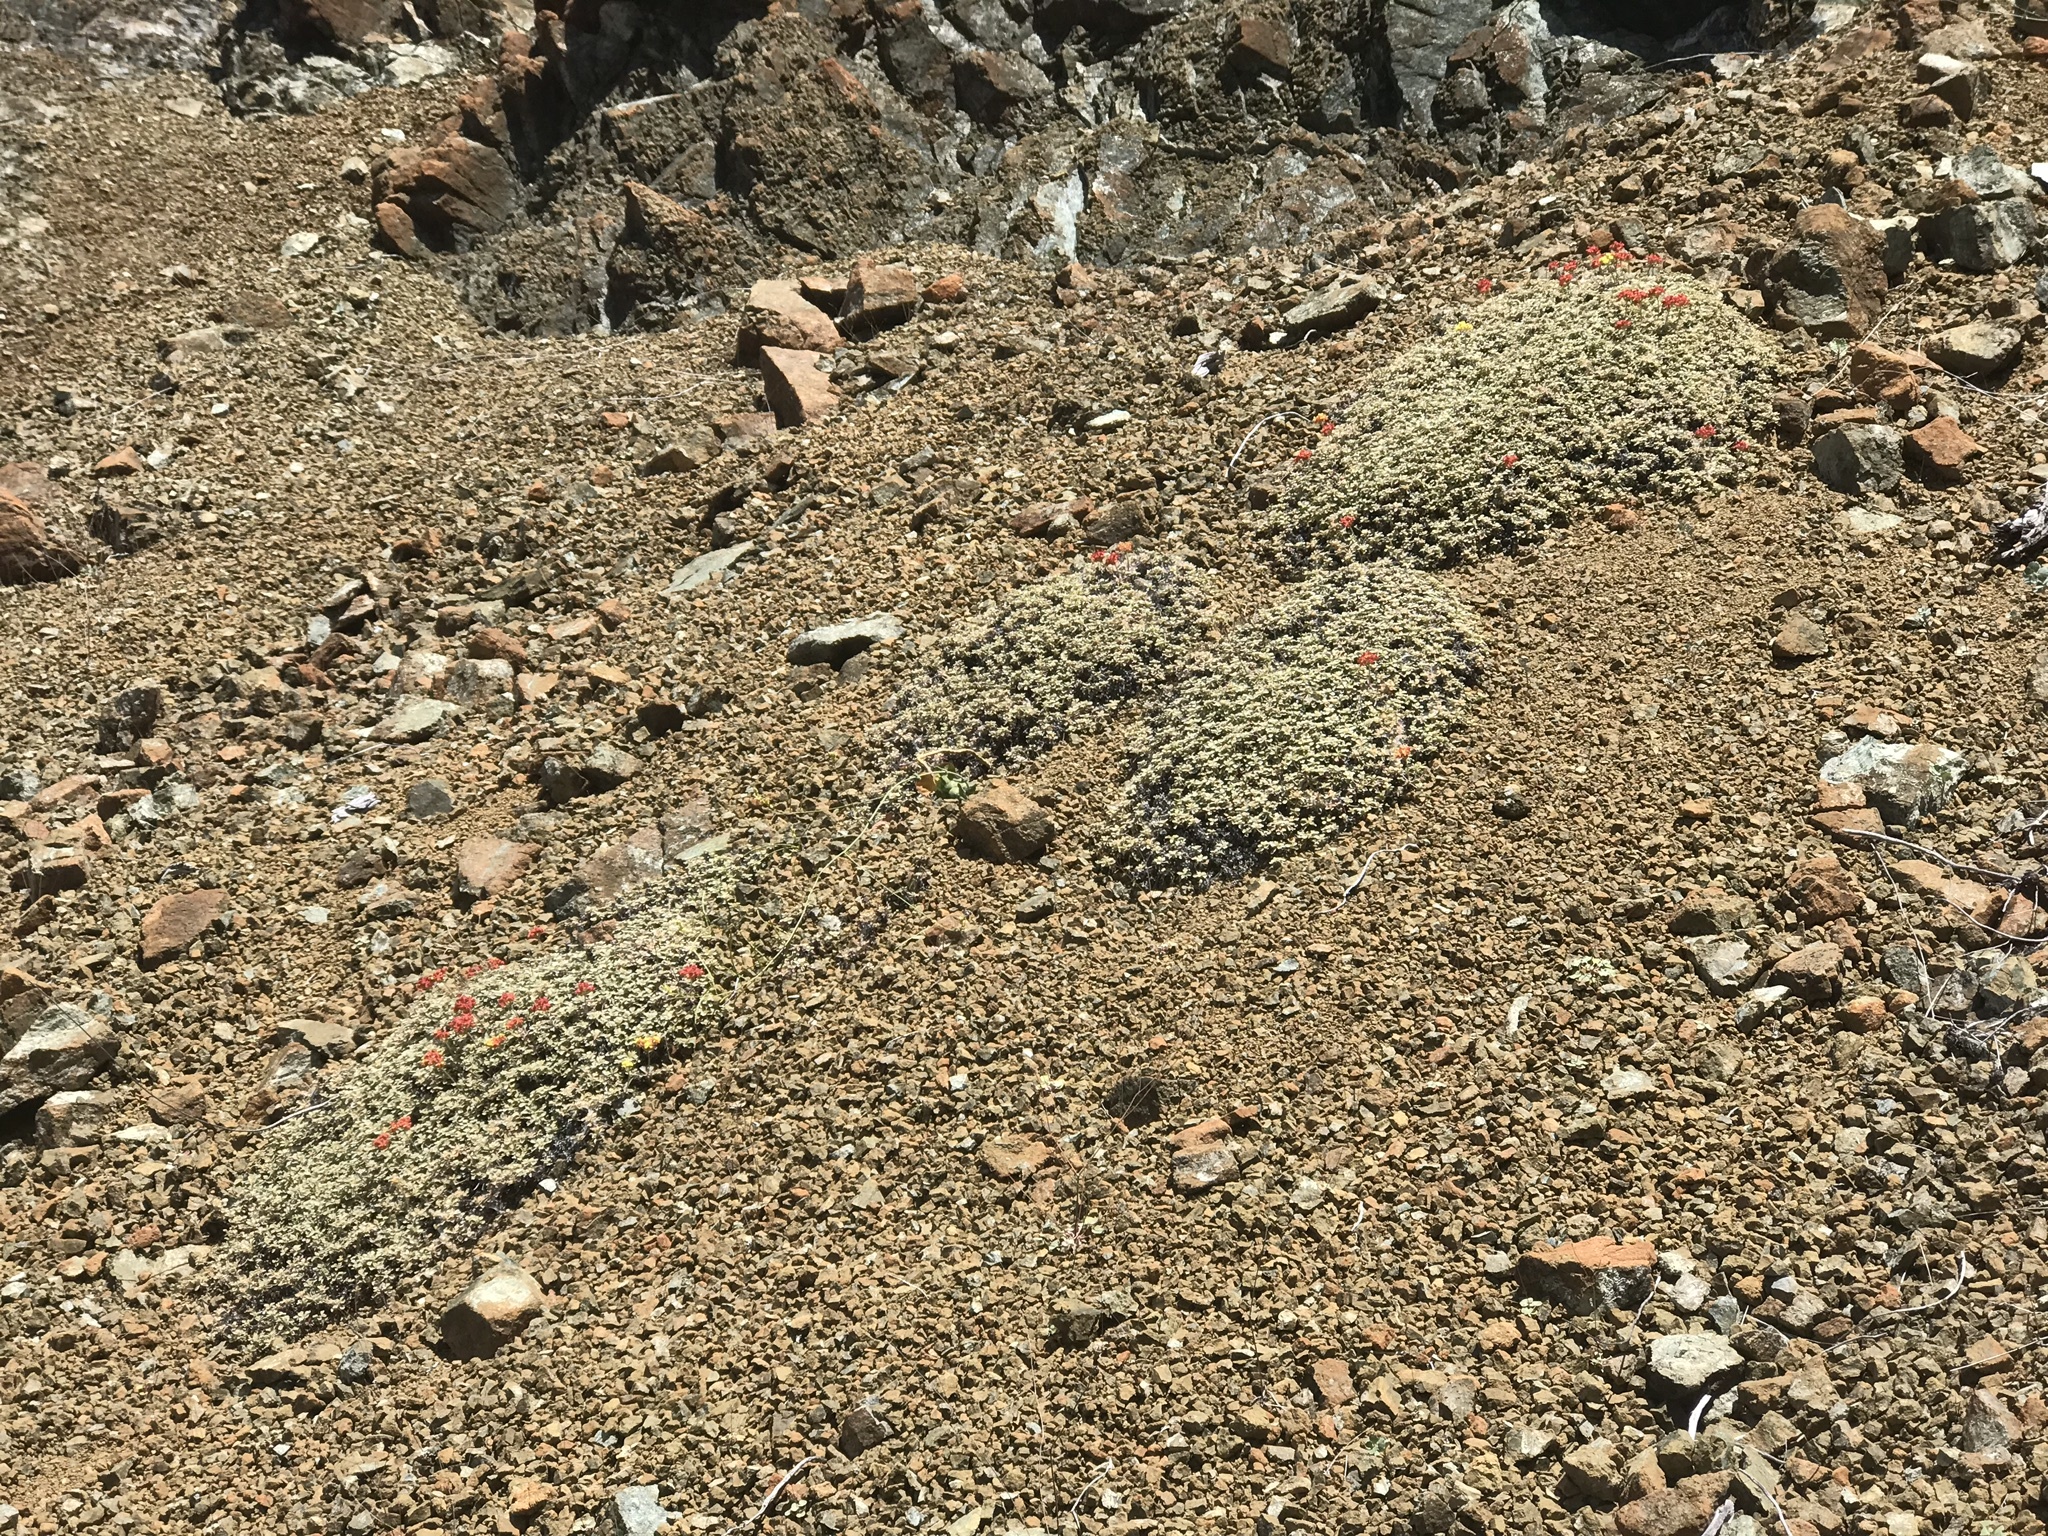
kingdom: Plantae
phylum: Tracheophyta
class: Magnoliopsida
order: Caryophyllales
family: Polygonaceae
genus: Eriogonum
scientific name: Eriogonum cedrorum
